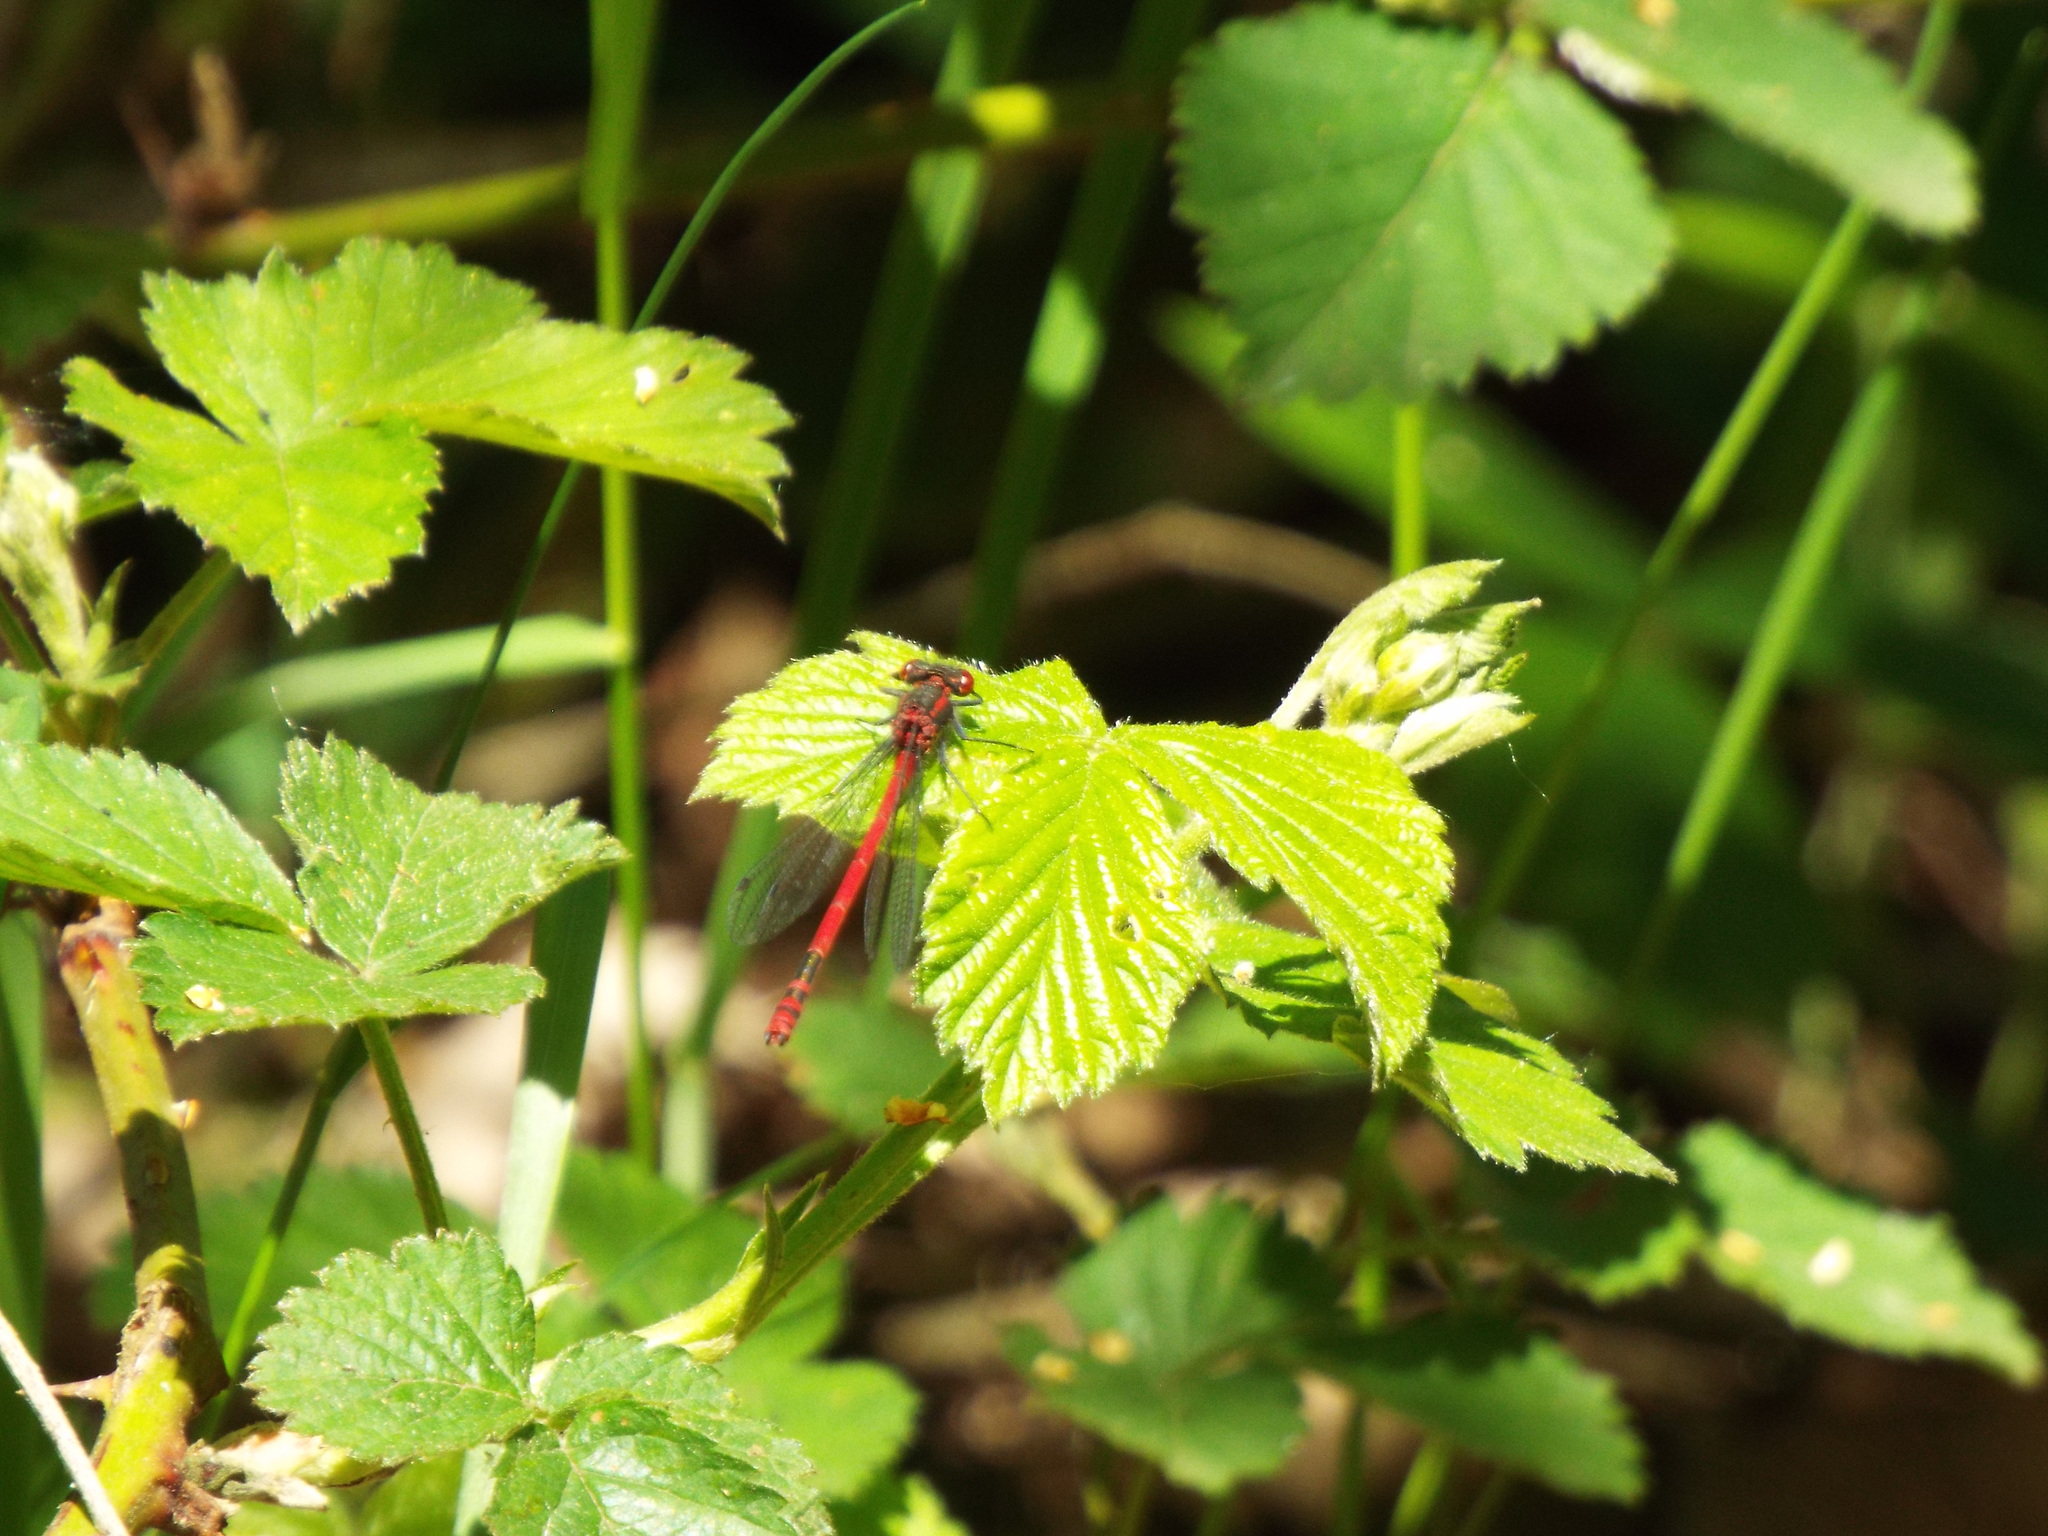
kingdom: Animalia
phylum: Arthropoda
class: Insecta
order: Odonata
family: Coenagrionidae
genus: Pyrrhosoma
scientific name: Pyrrhosoma nymphula
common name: Large red damsel
